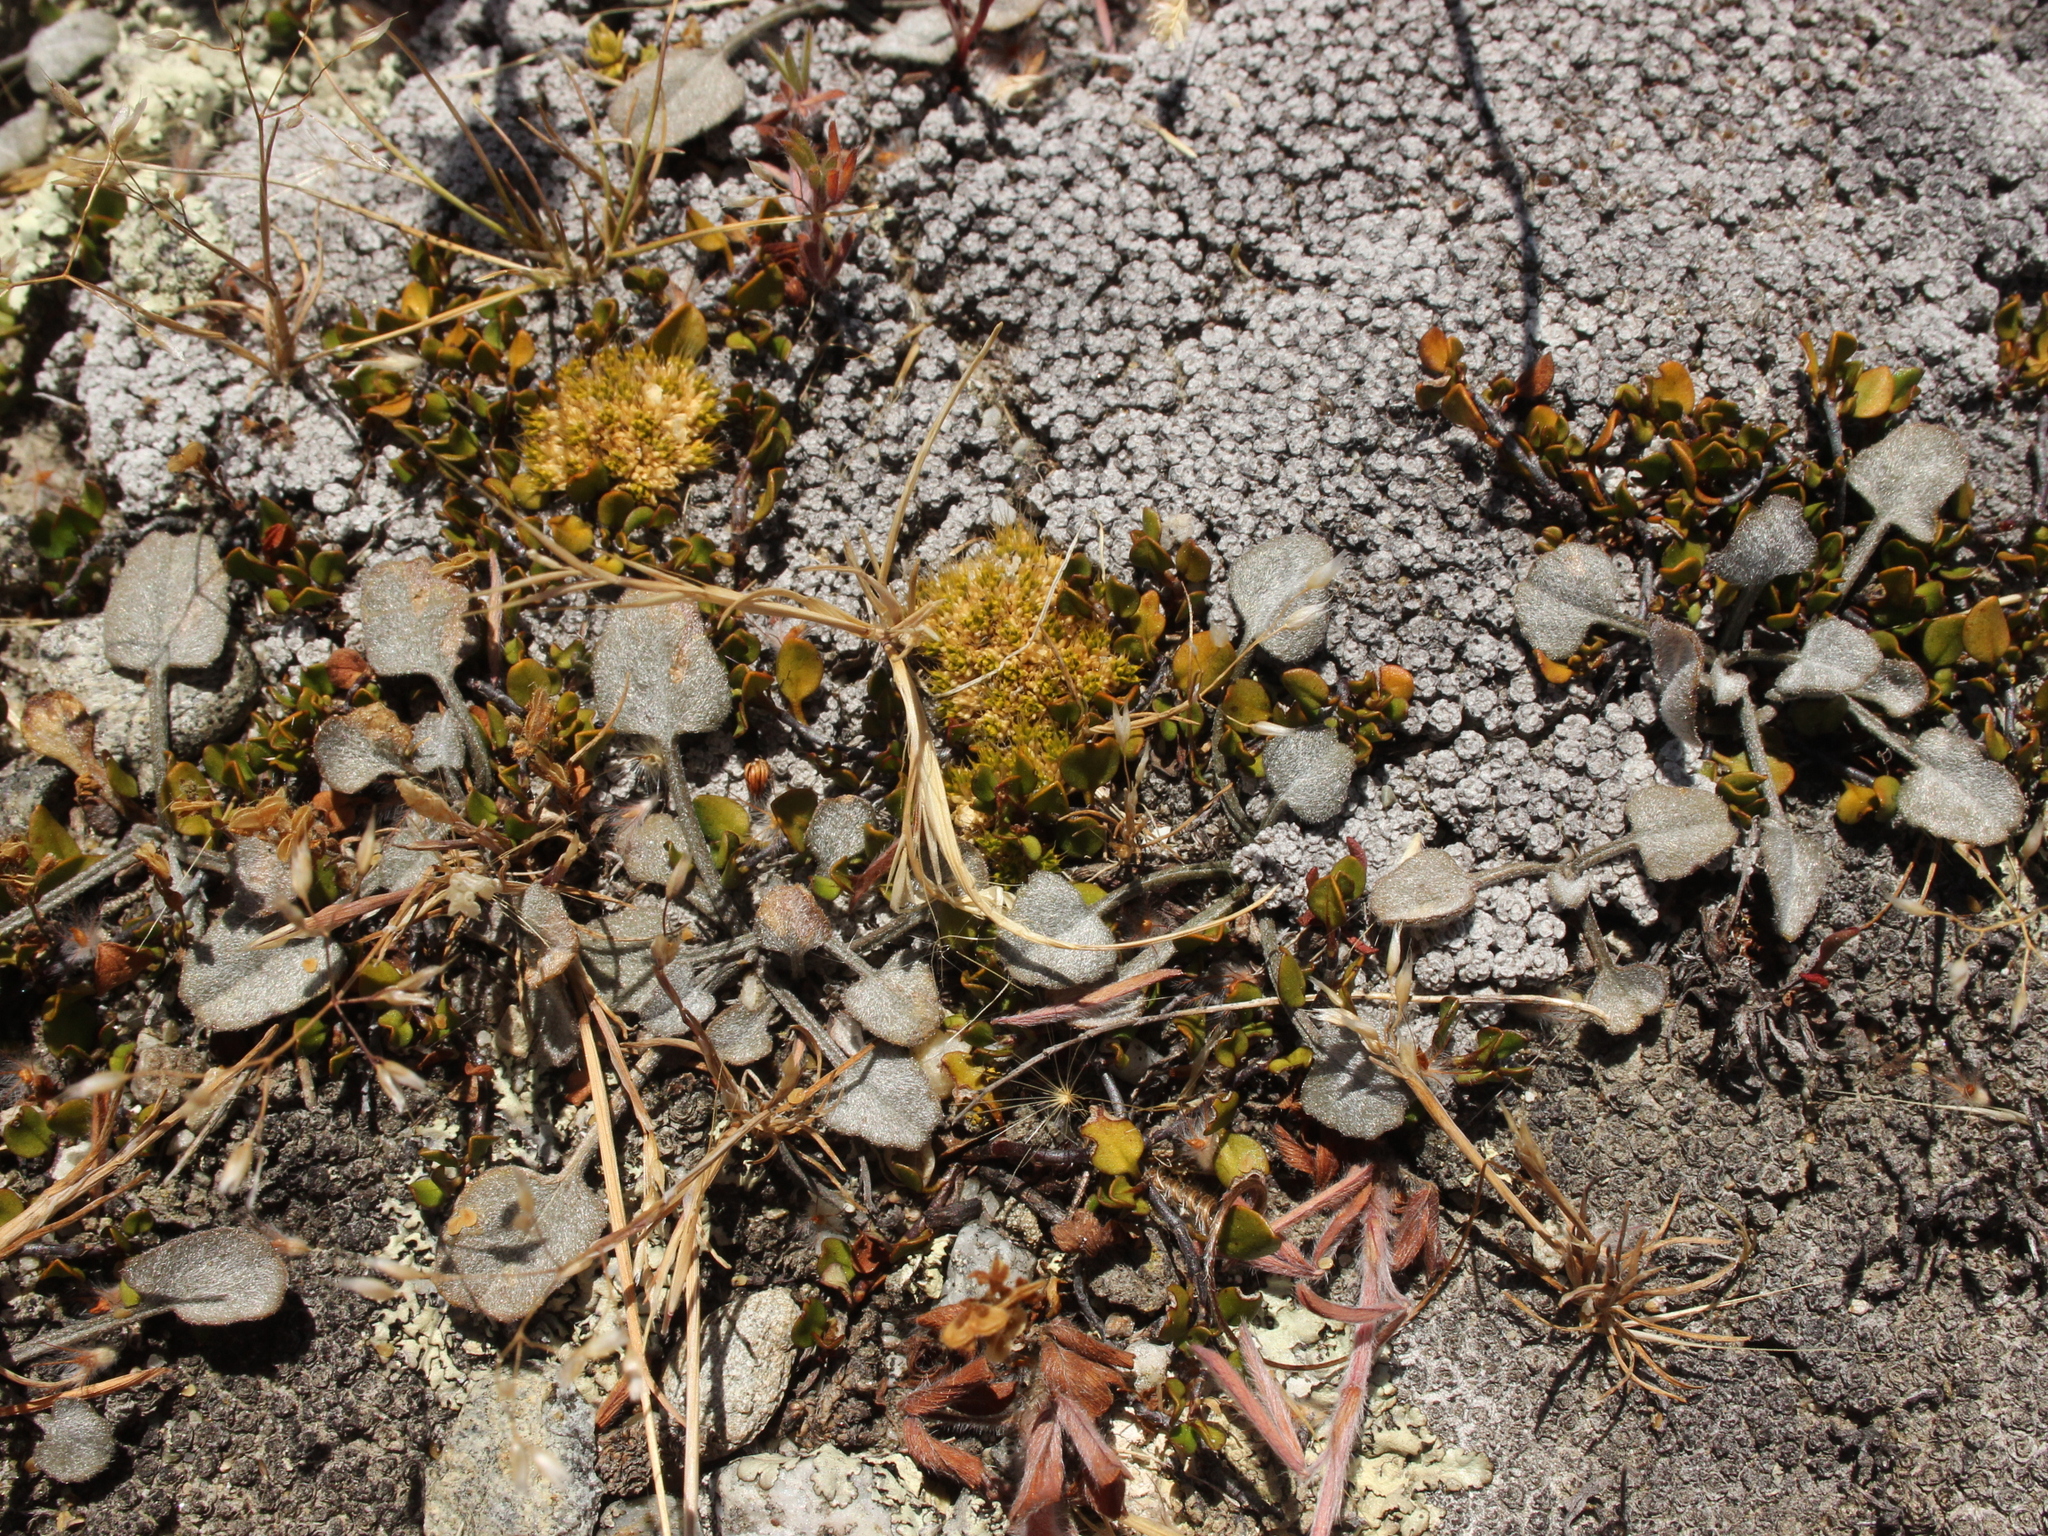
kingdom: Plantae
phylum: Tracheophyta
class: Magnoliopsida
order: Solanales
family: Convolvulaceae
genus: Convolvulus
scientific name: Convolvulus verecundus
